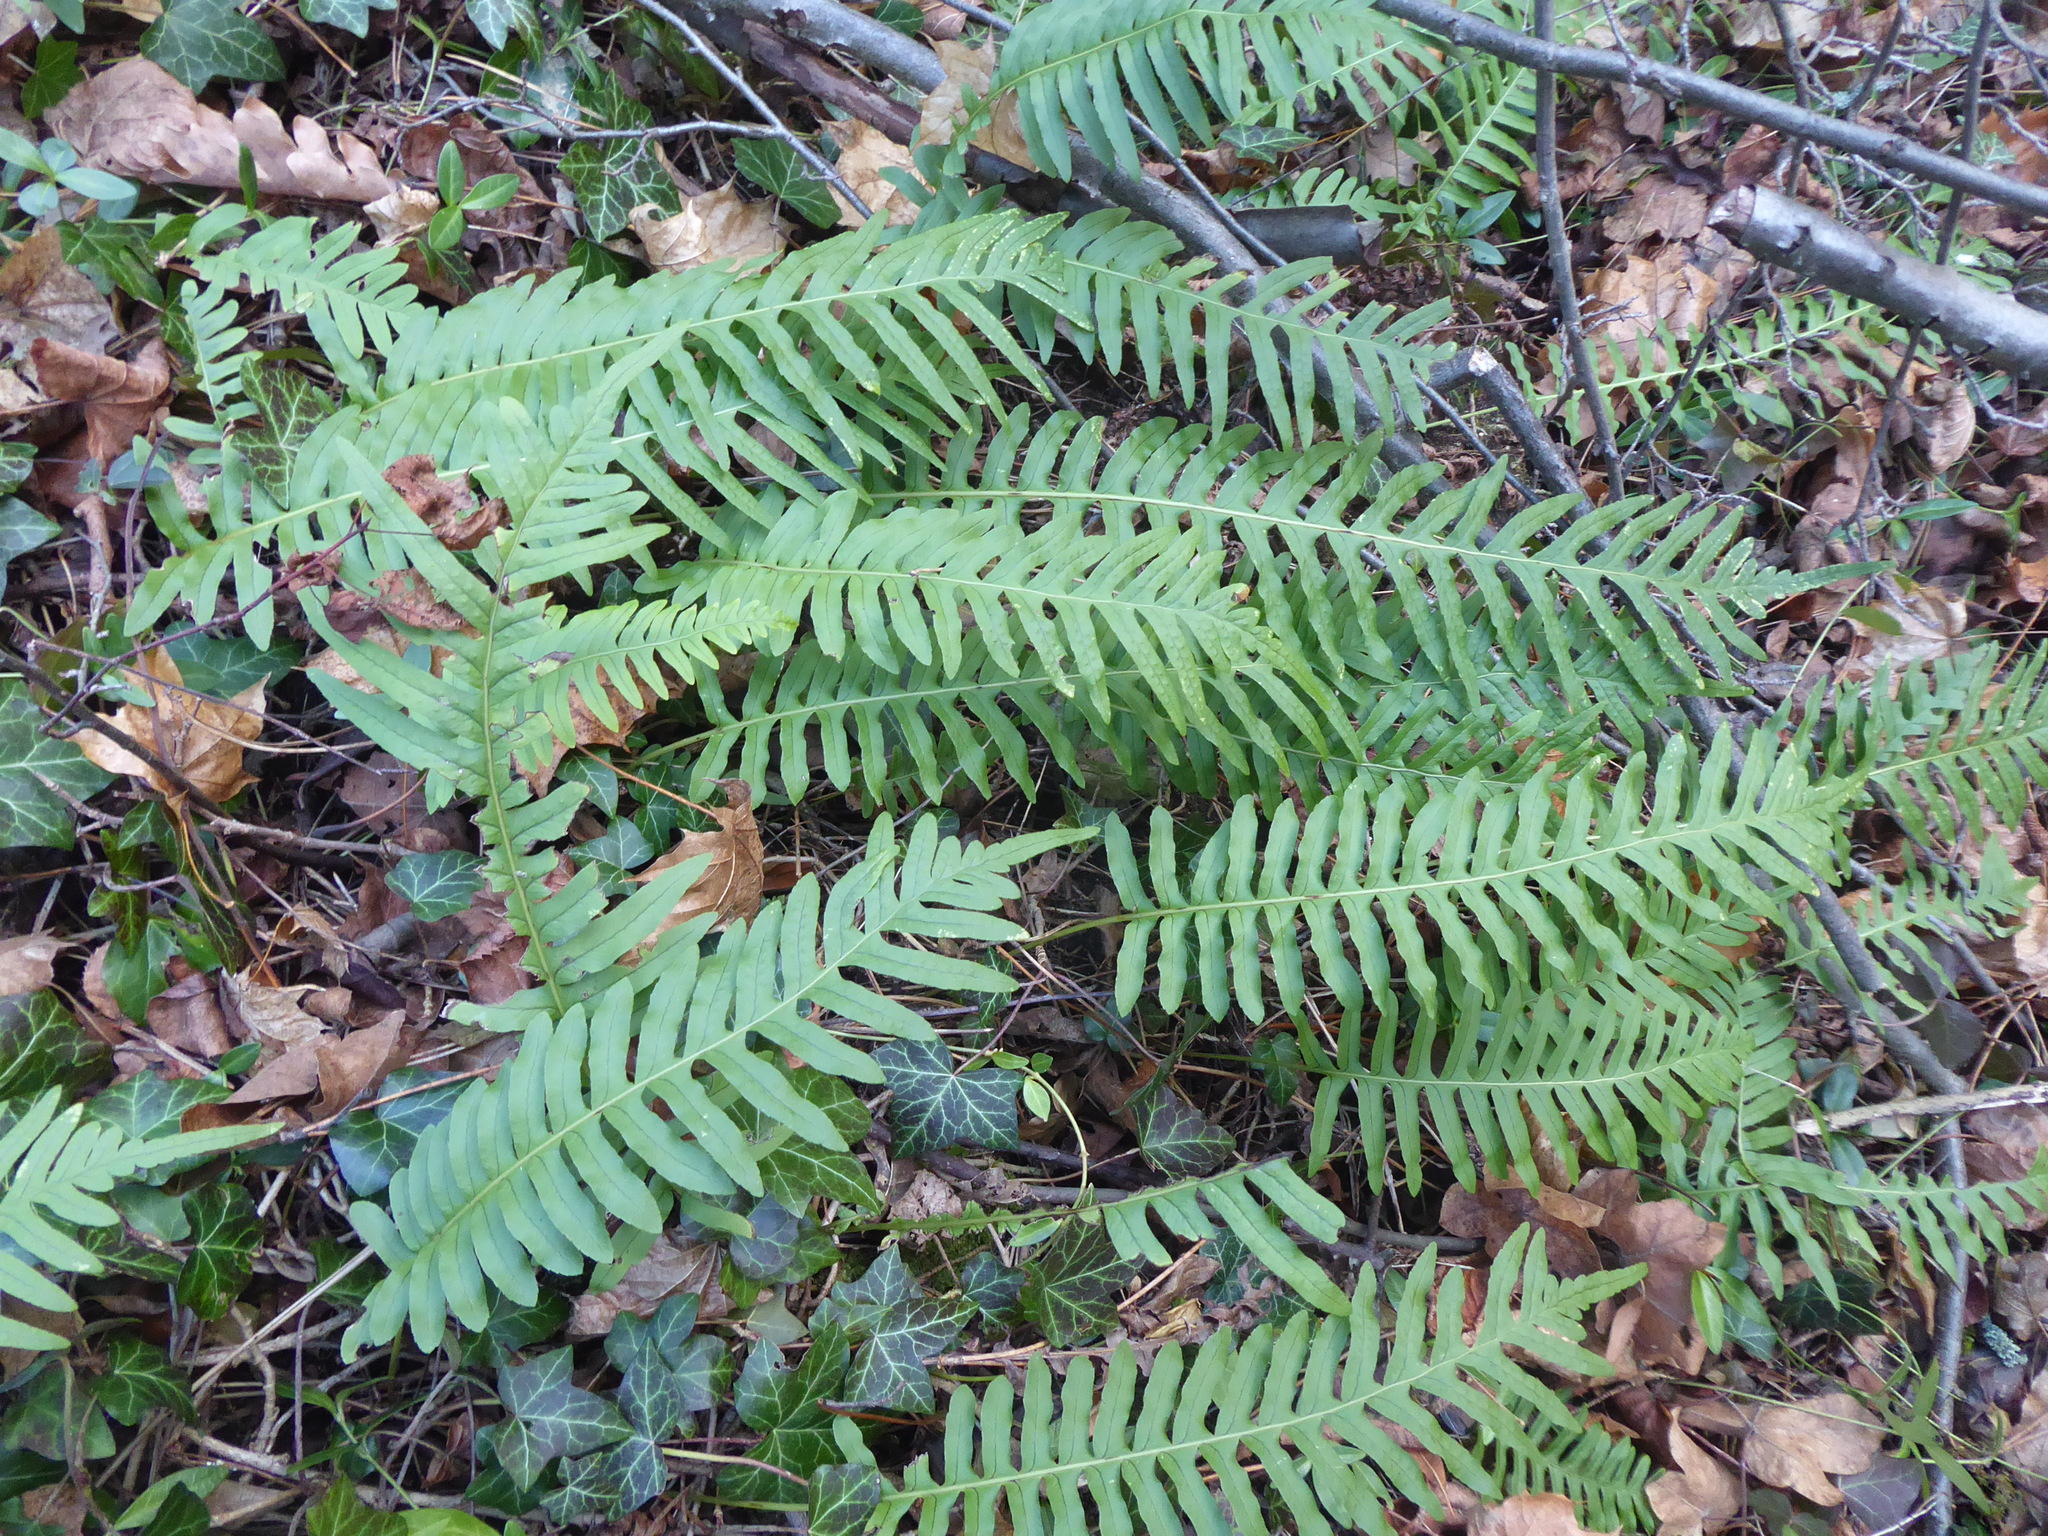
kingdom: Plantae
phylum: Tracheophyta
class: Polypodiopsida
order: Polypodiales
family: Polypodiaceae
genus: Polypodium
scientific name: Polypodium interjectum
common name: Intermediate polypody
